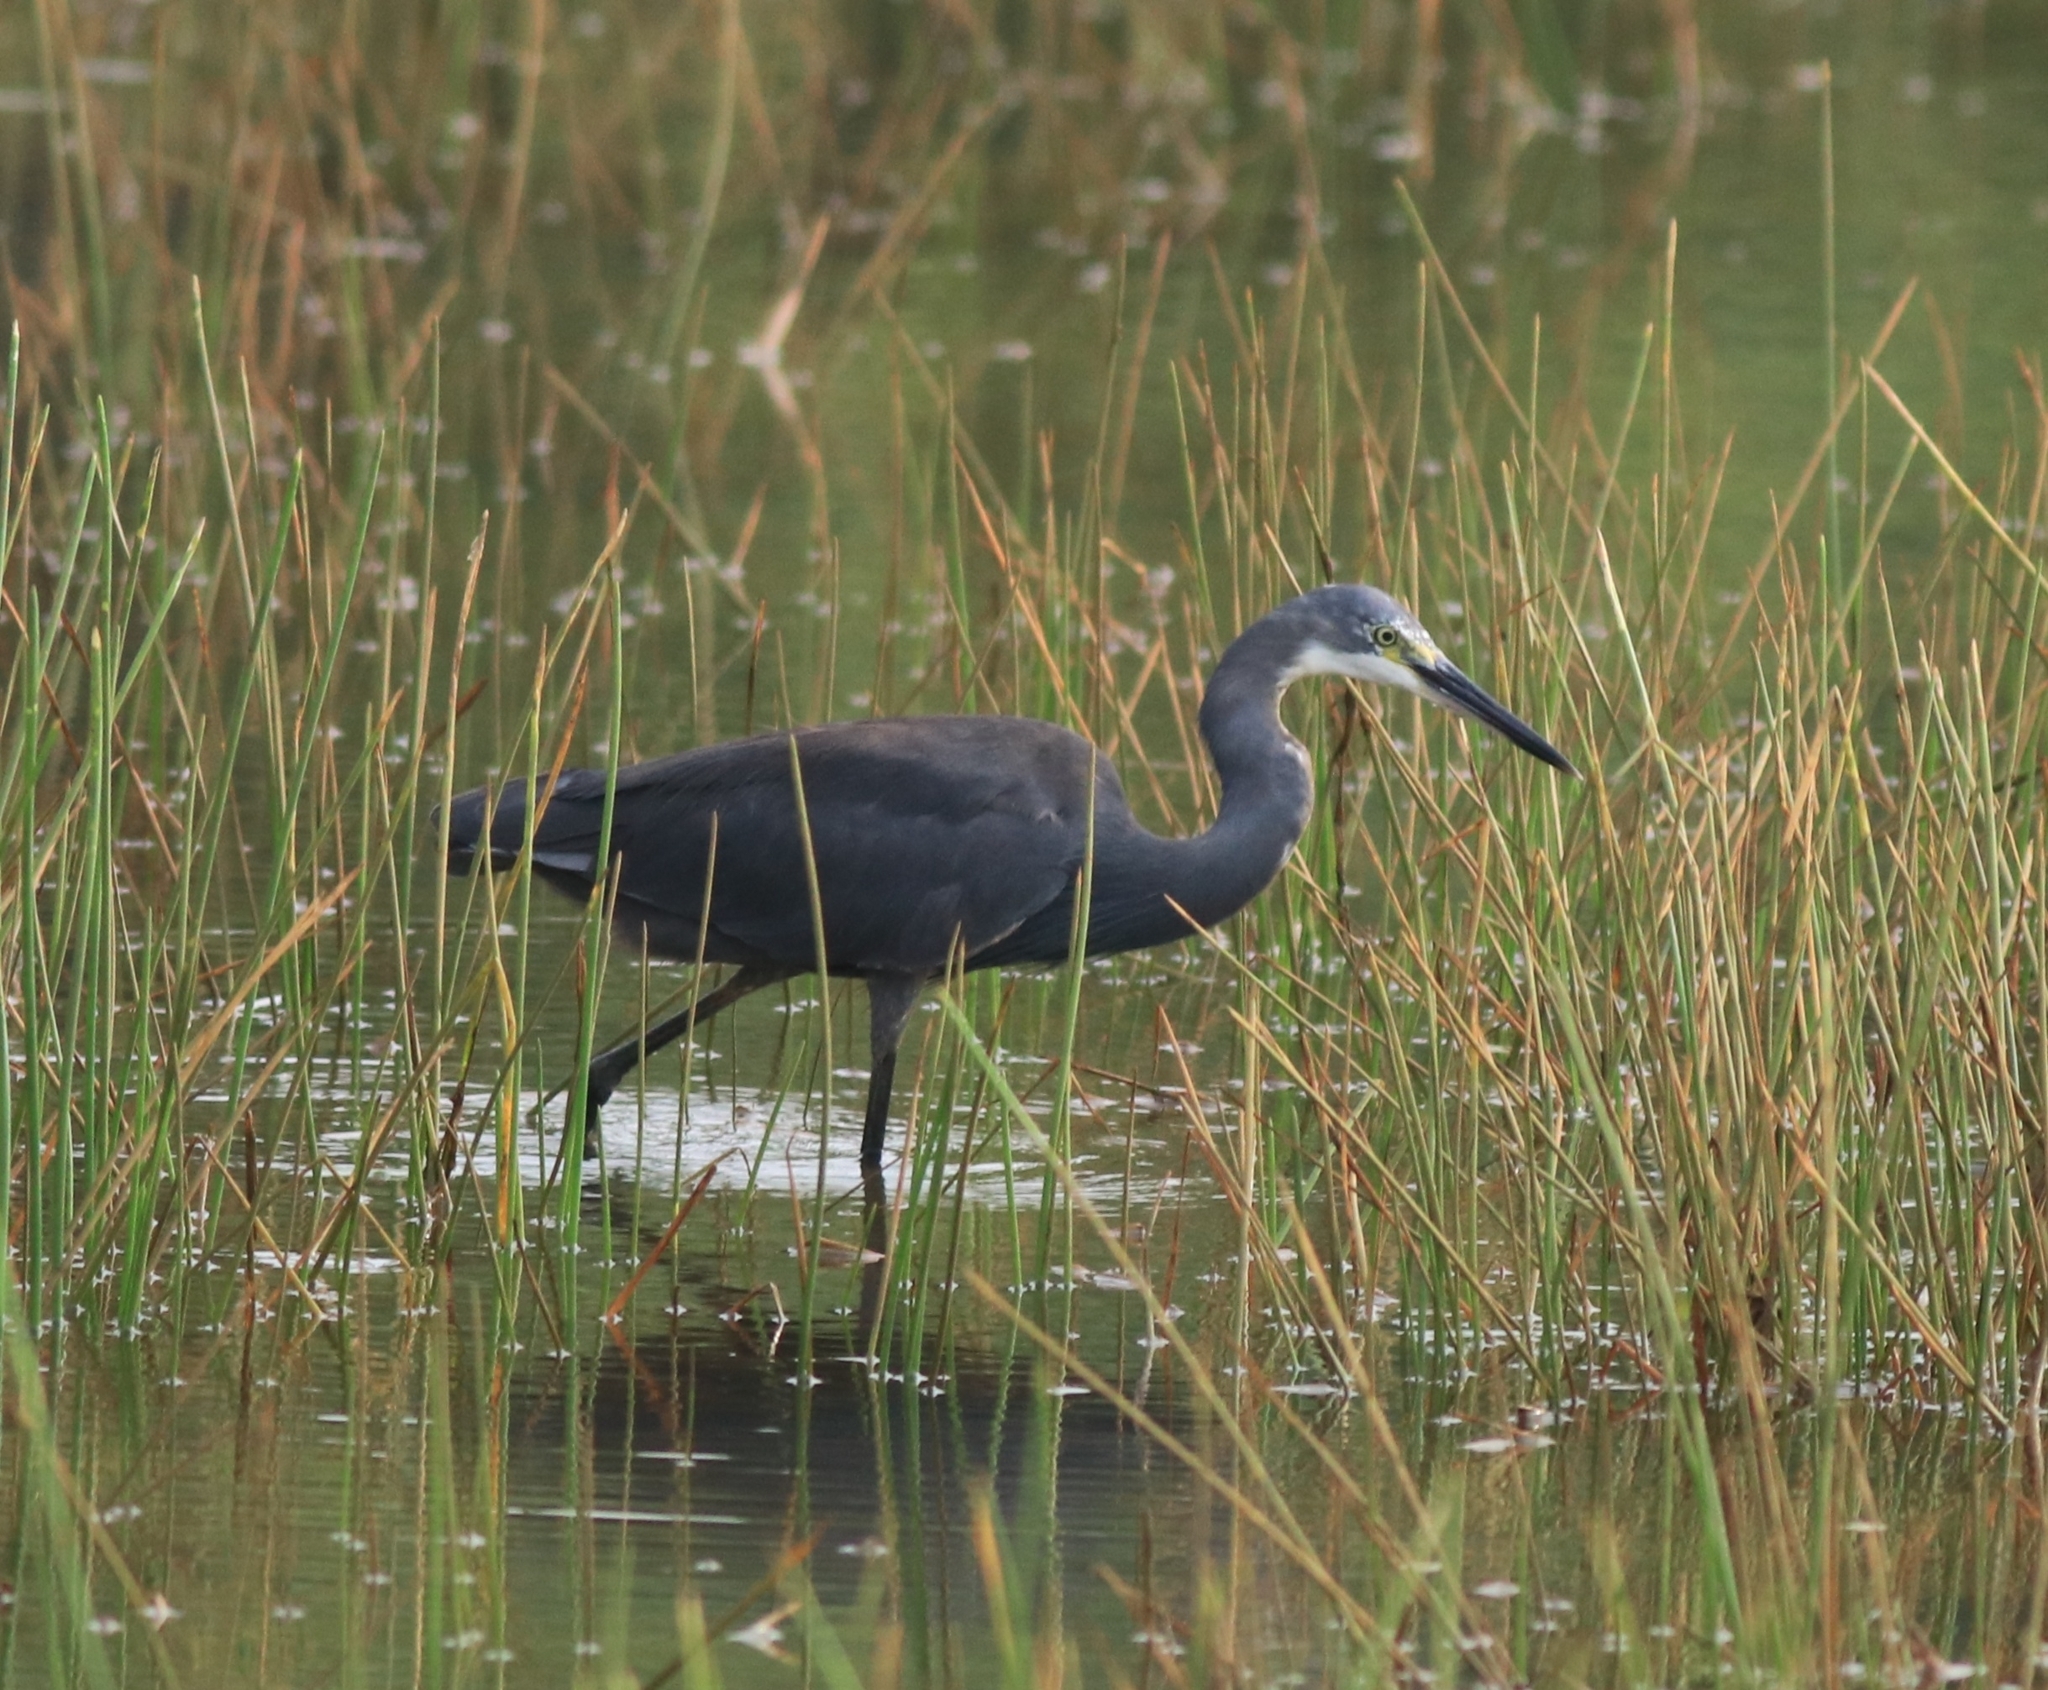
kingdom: Animalia
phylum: Chordata
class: Aves
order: Pelecaniformes
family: Ardeidae
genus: Egretta
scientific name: Egretta gularis
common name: Western reef-heron
